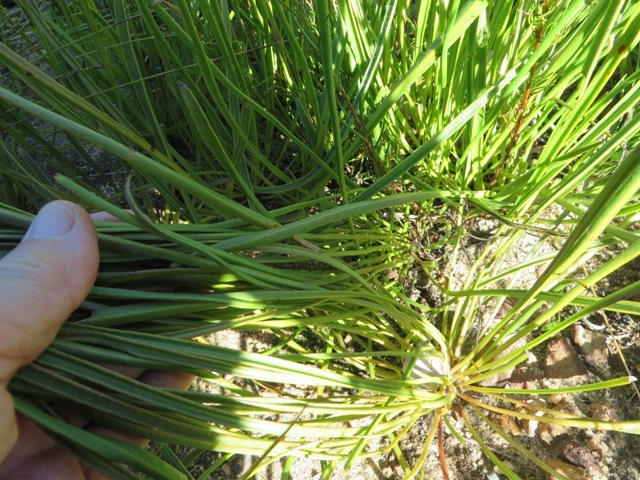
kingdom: Plantae
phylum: Tracheophyta
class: Magnoliopsida
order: Proteales
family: Proteaceae
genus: Protea
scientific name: Protea scorzonerifolia
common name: Channel-leaf sugarbush
